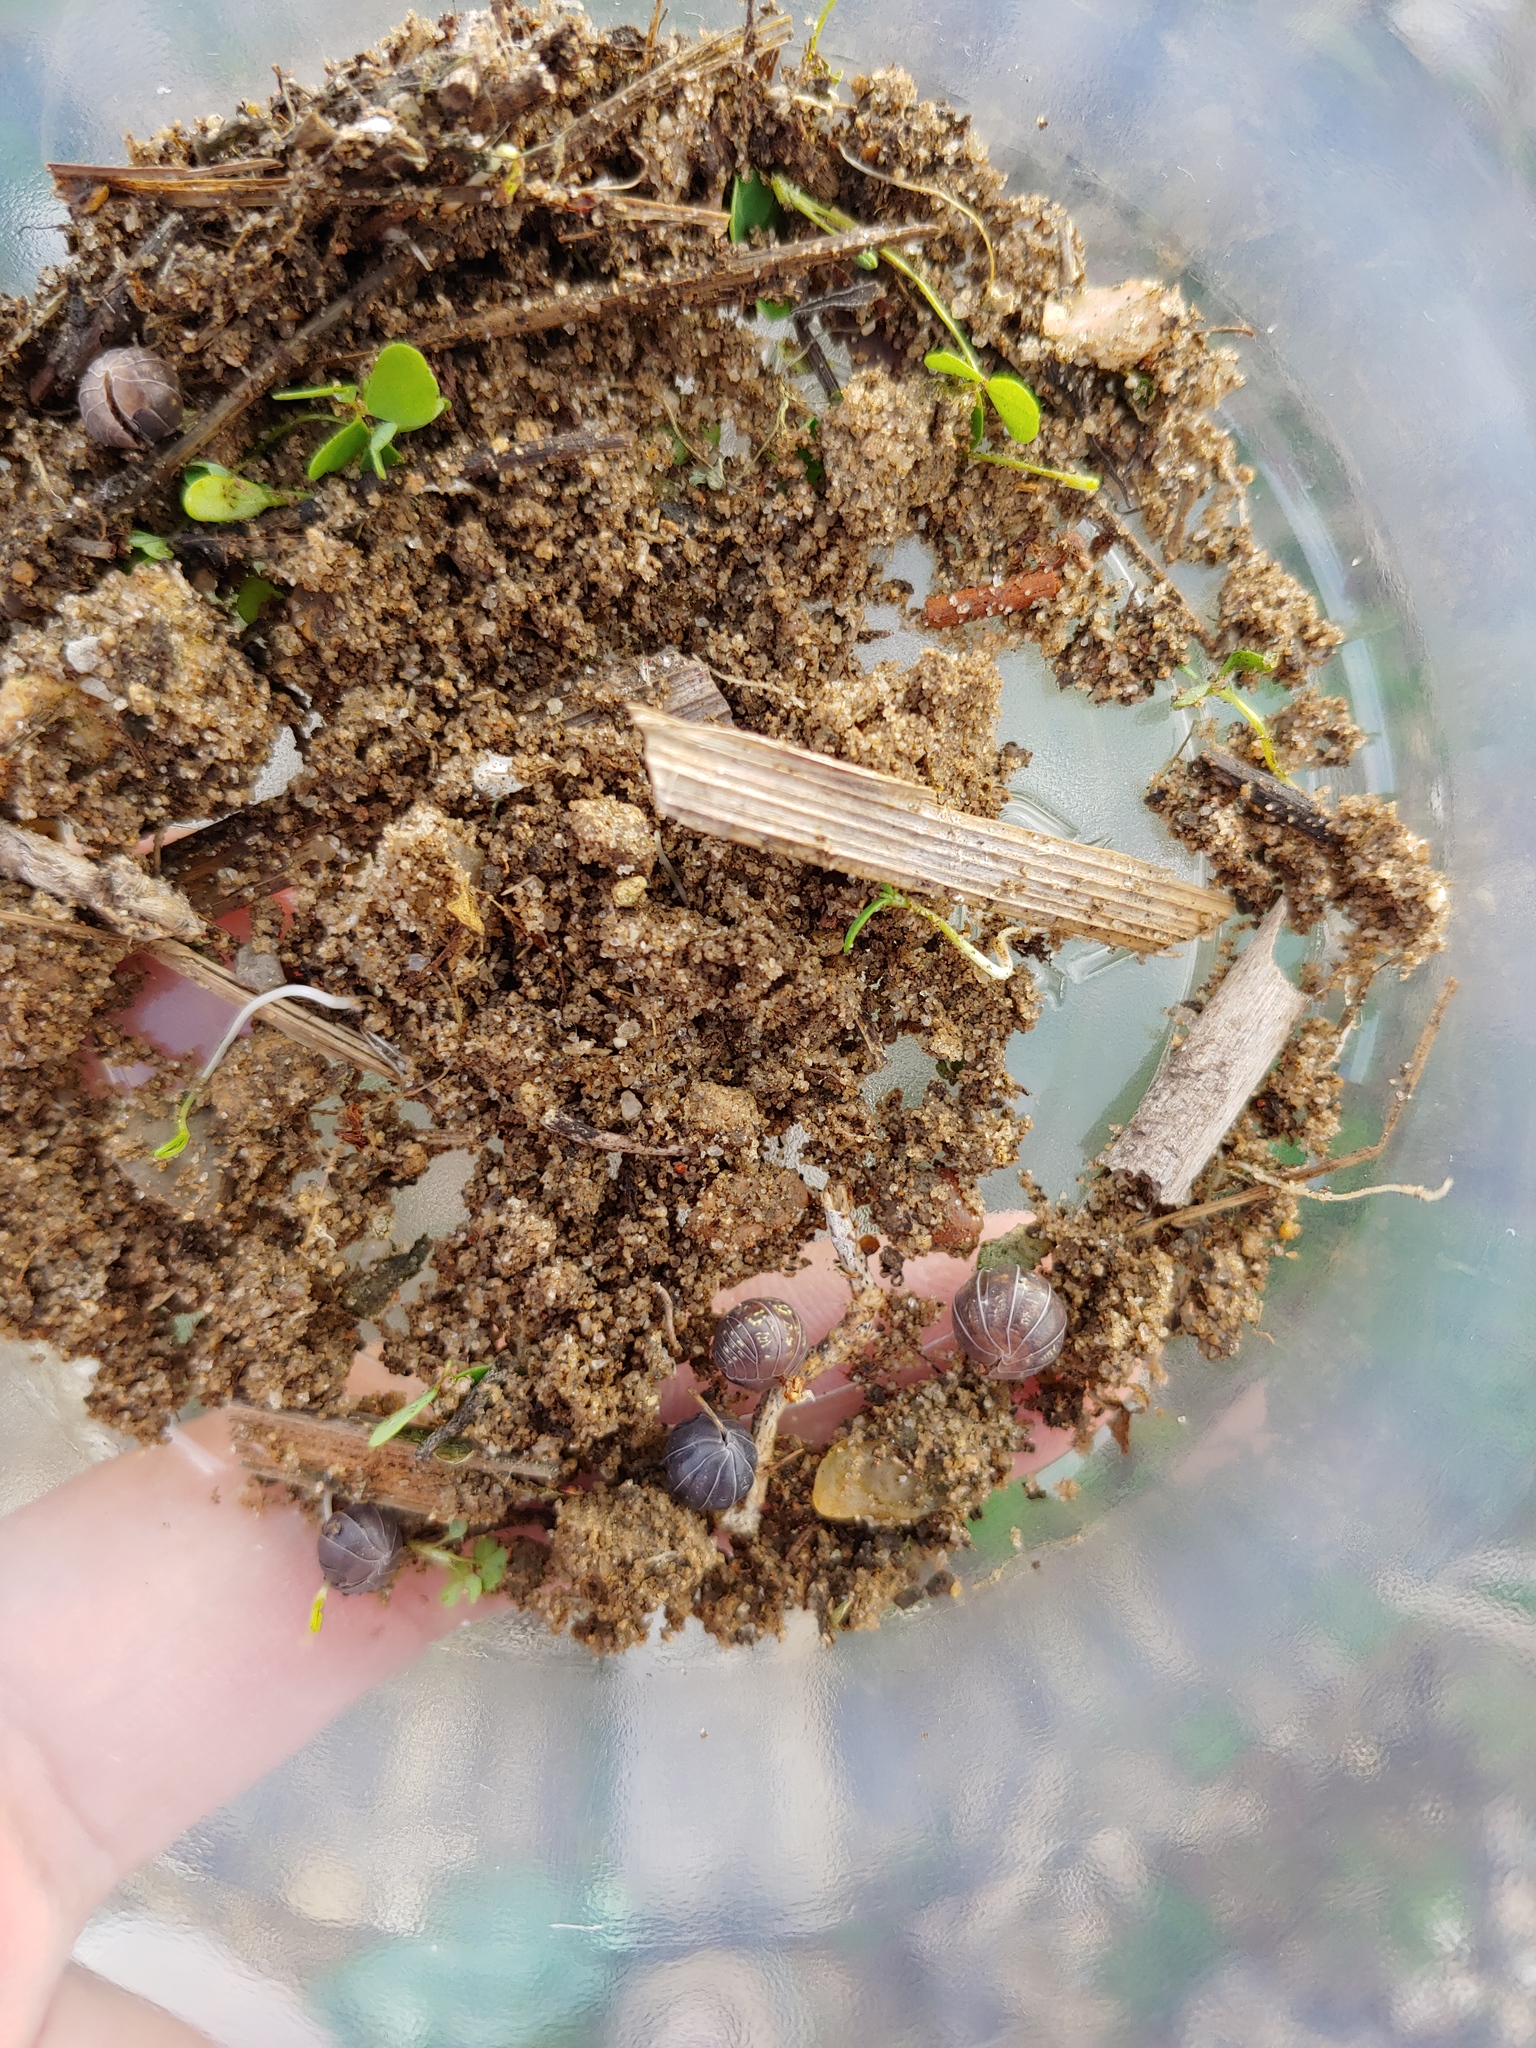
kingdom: Animalia
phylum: Arthropoda
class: Malacostraca
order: Isopoda
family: Armadillidiidae
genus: Armadillidium
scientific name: Armadillidium vulgare
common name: Common pill woodlouse
